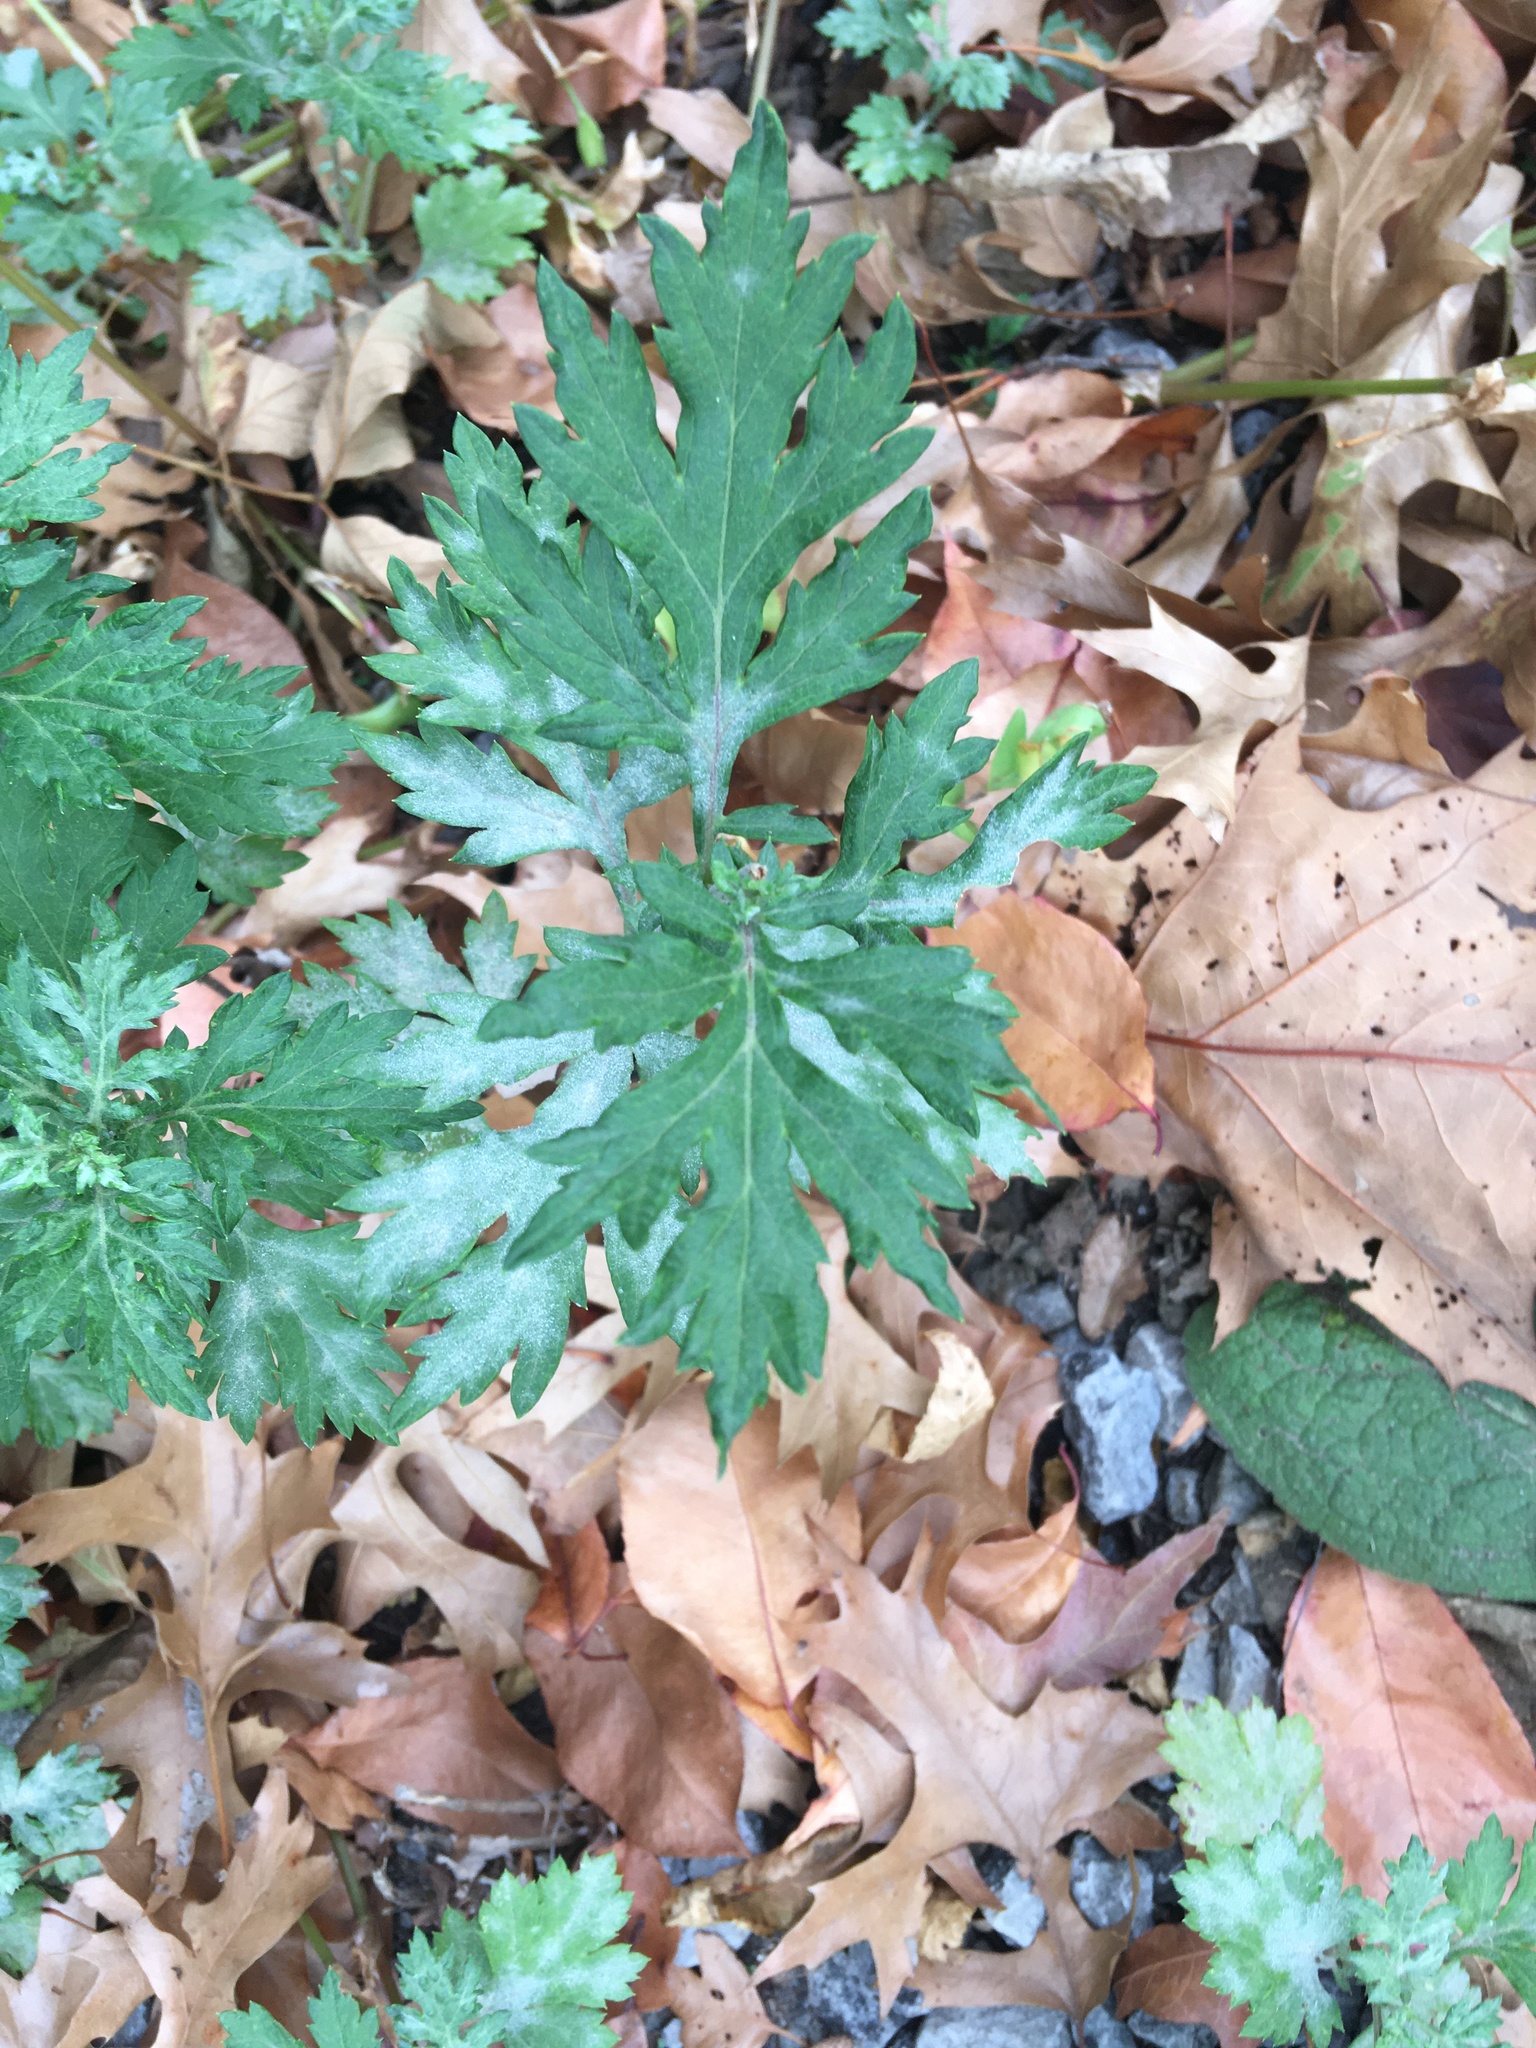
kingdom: Plantae
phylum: Tracheophyta
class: Magnoliopsida
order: Asterales
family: Asteraceae
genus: Artemisia
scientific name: Artemisia vulgaris
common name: Mugwort
